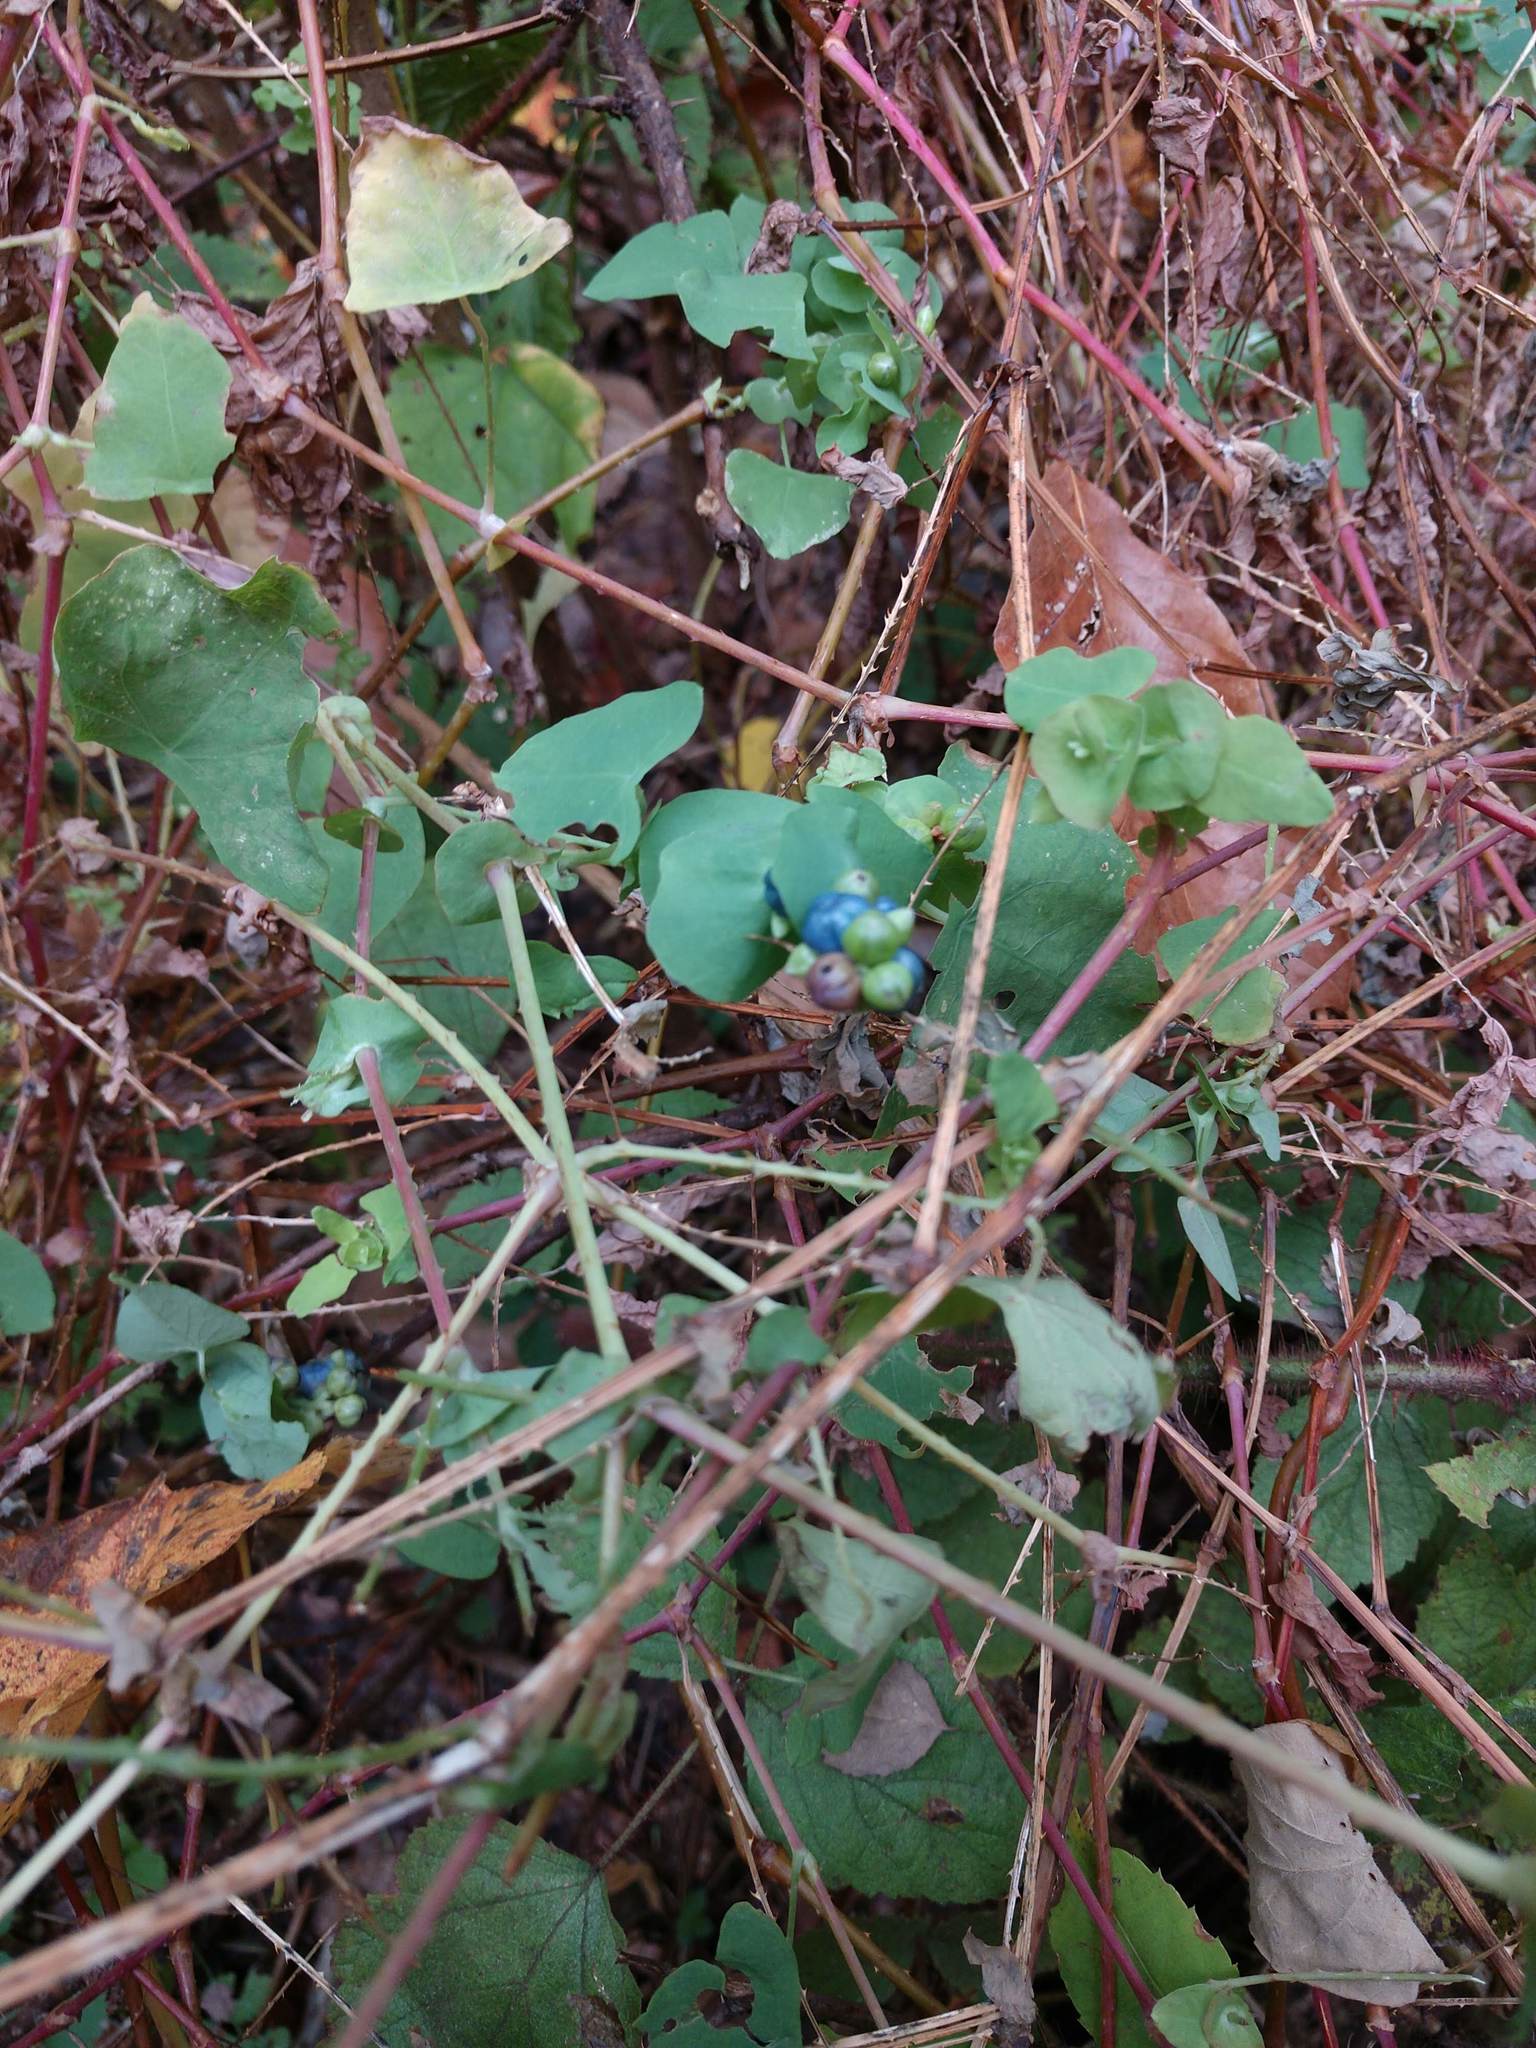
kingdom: Plantae
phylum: Tracheophyta
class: Magnoliopsida
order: Caryophyllales
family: Polygonaceae
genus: Persicaria
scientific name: Persicaria perfoliata
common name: Asiatic tearthumb
